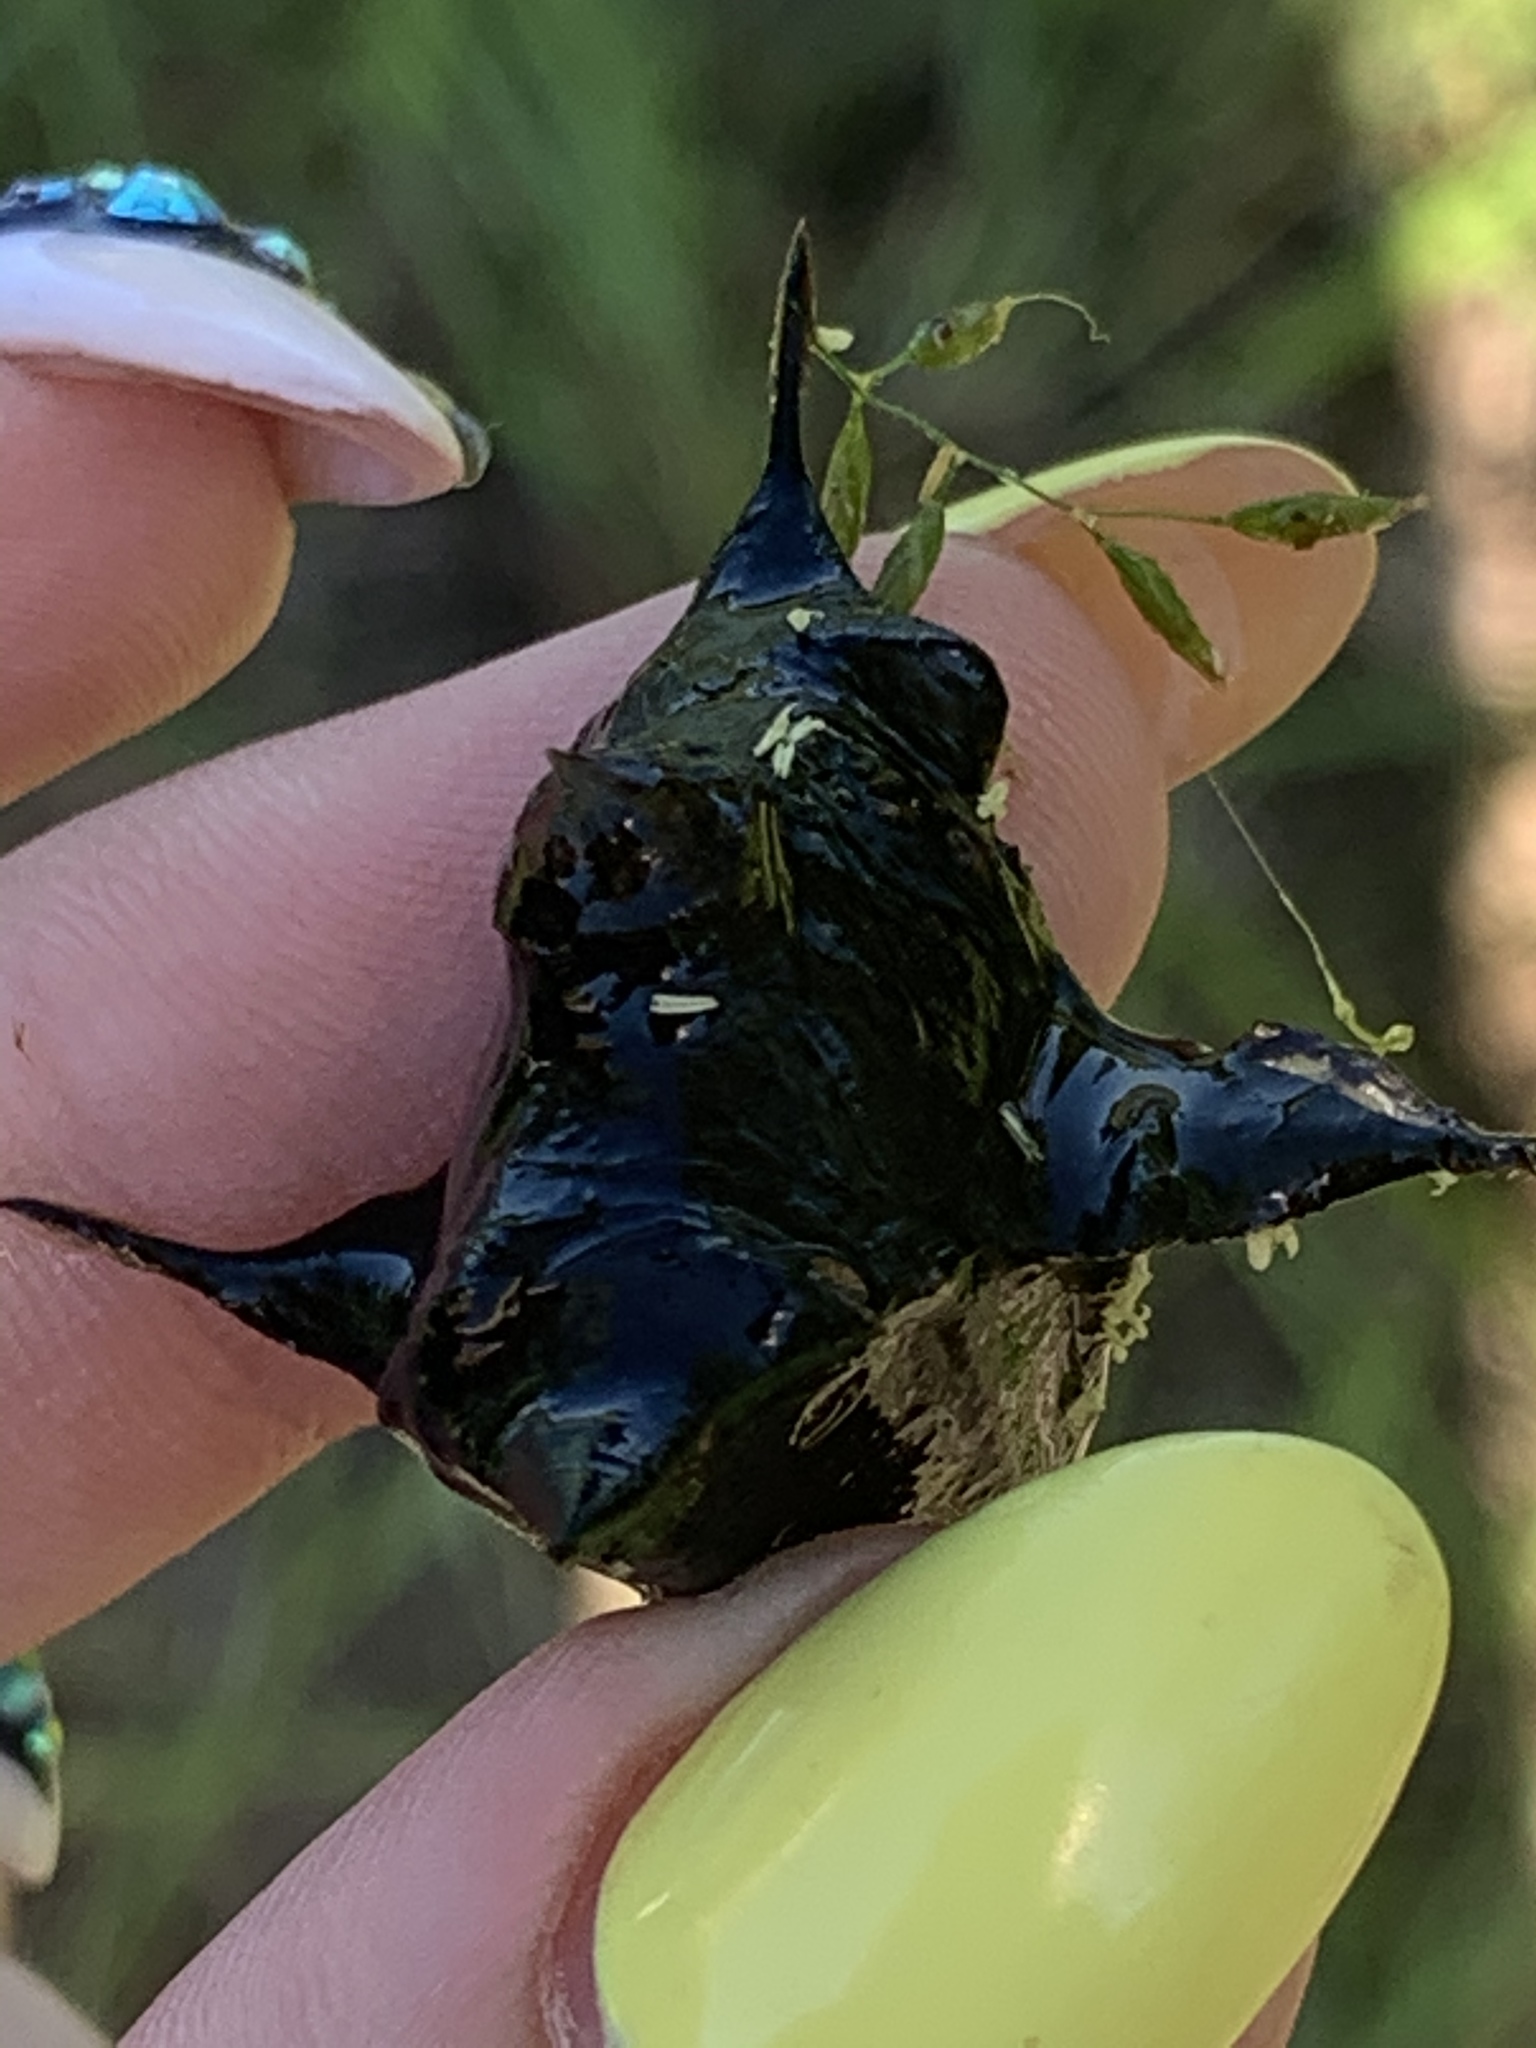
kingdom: Plantae
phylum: Tracheophyta
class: Magnoliopsida
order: Myrtales
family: Lythraceae
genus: Trapa
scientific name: Trapa natans
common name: Water chestnut
